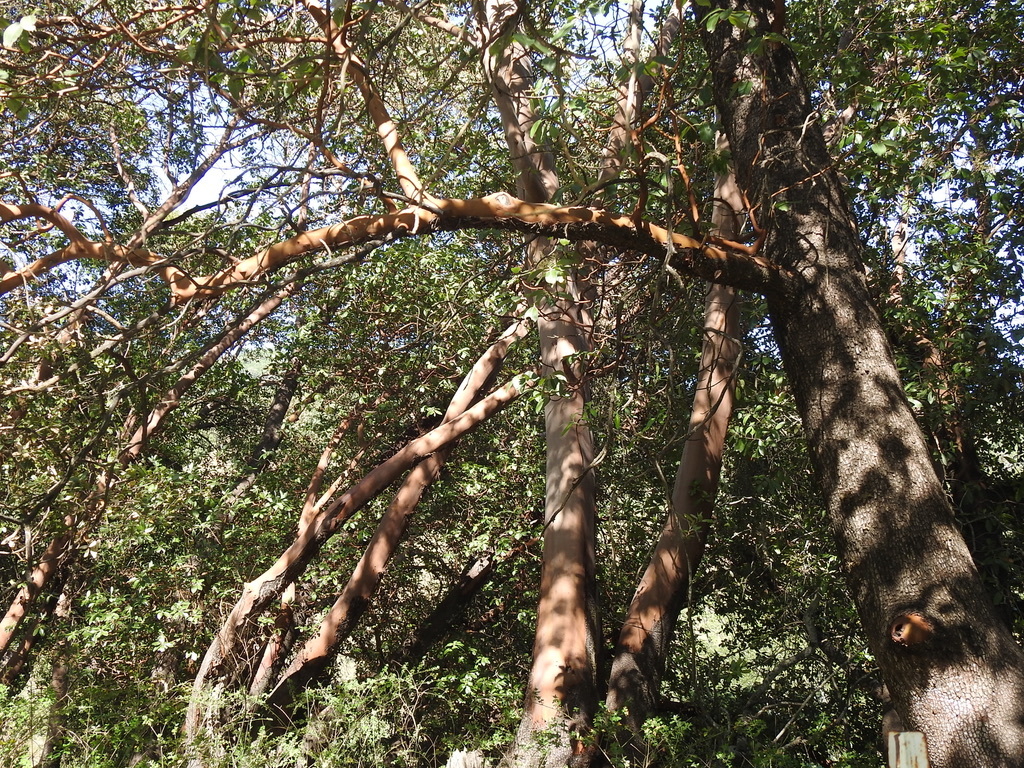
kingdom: Plantae
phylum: Tracheophyta
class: Magnoliopsida
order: Ericales
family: Ericaceae
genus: Arbutus
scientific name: Arbutus menziesii
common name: Pacific madrone
